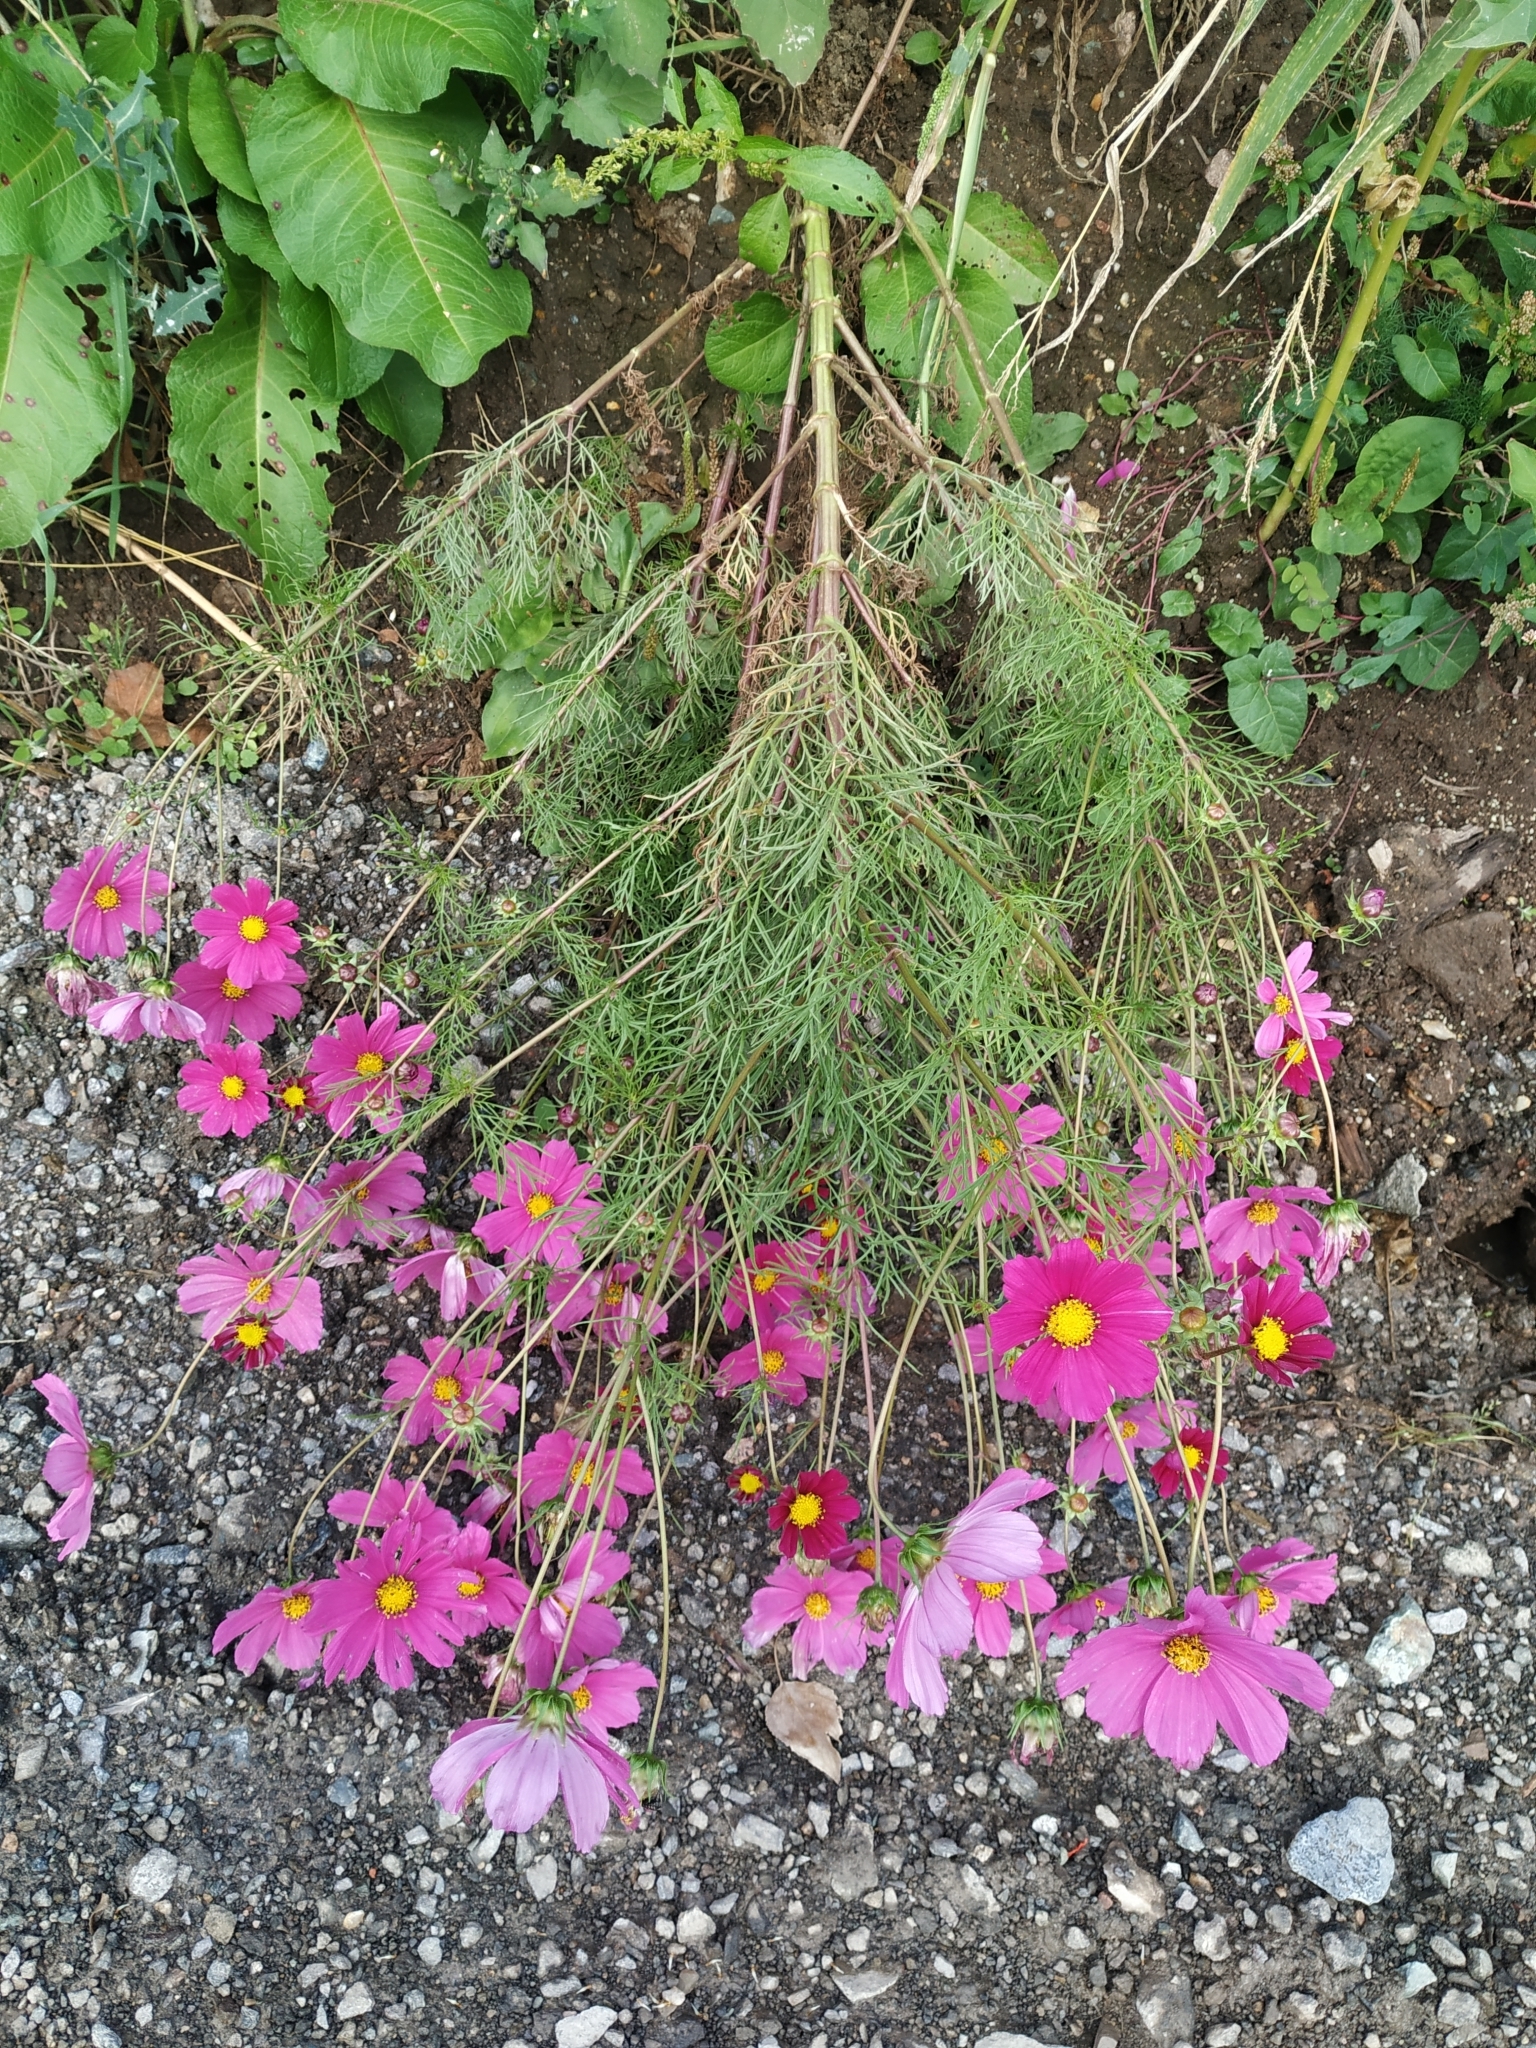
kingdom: Plantae
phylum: Tracheophyta
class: Magnoliopsida
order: Asterales
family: Asteraceae
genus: Cosmos
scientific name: Cosmos bipinnatus
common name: Garden cosmos
